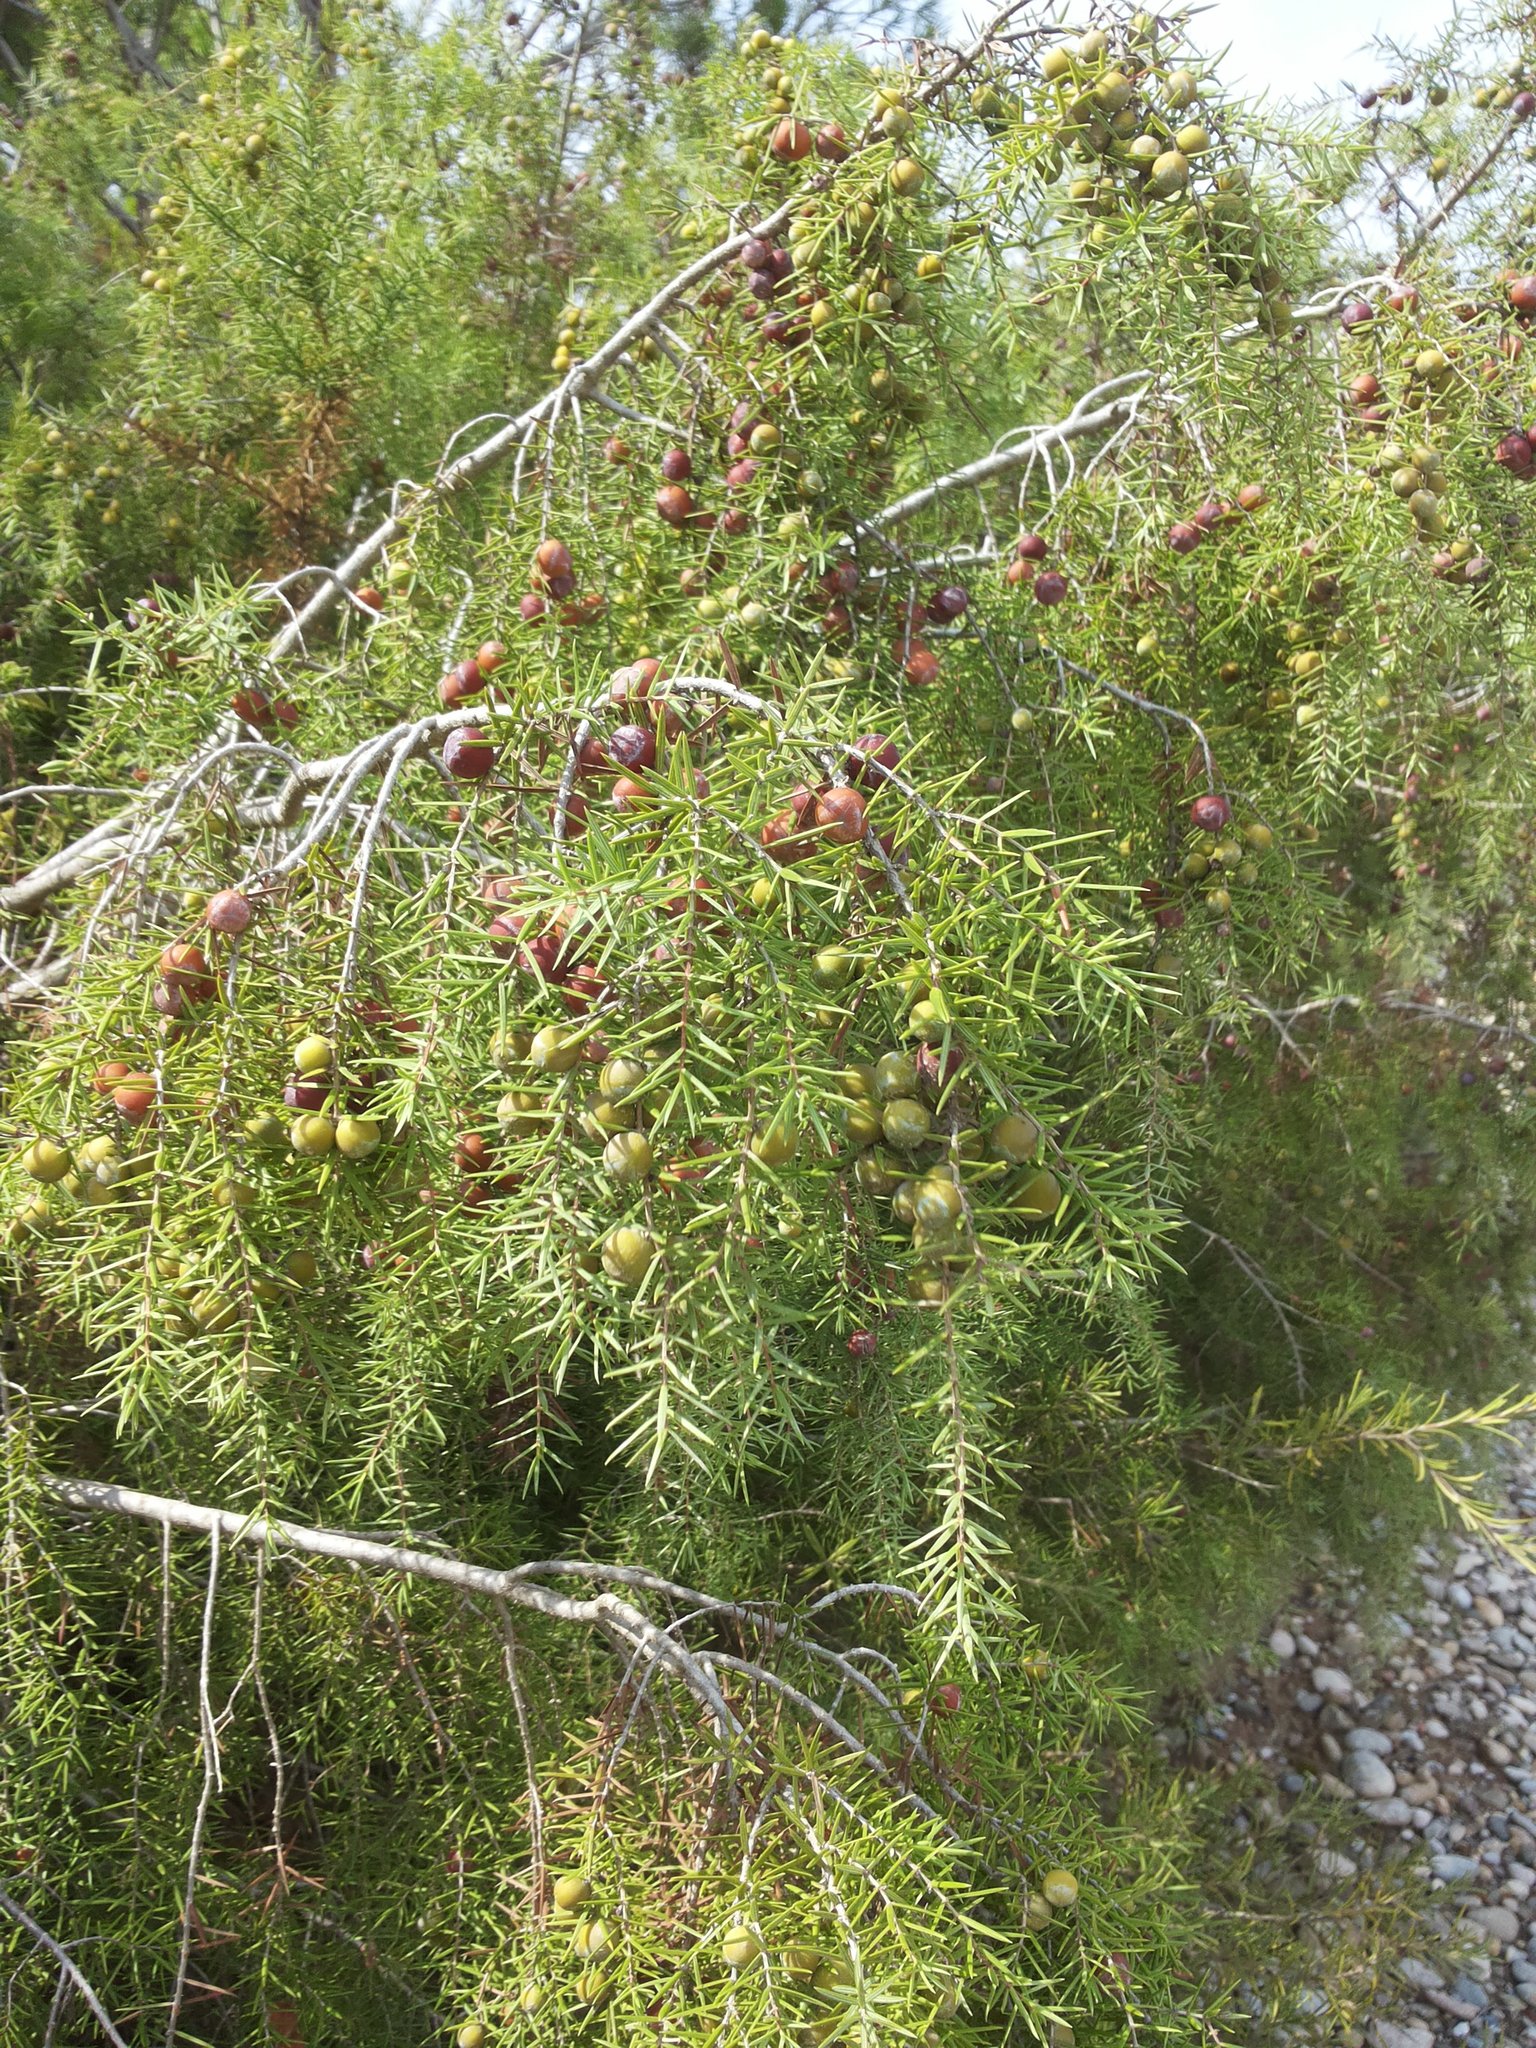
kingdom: Plantae
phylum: Tracheophyta
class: Pinopsida
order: Pinales
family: Cupressaceae
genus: Juniperus
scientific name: Juniperus oxycedrus
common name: Prickly juniper
